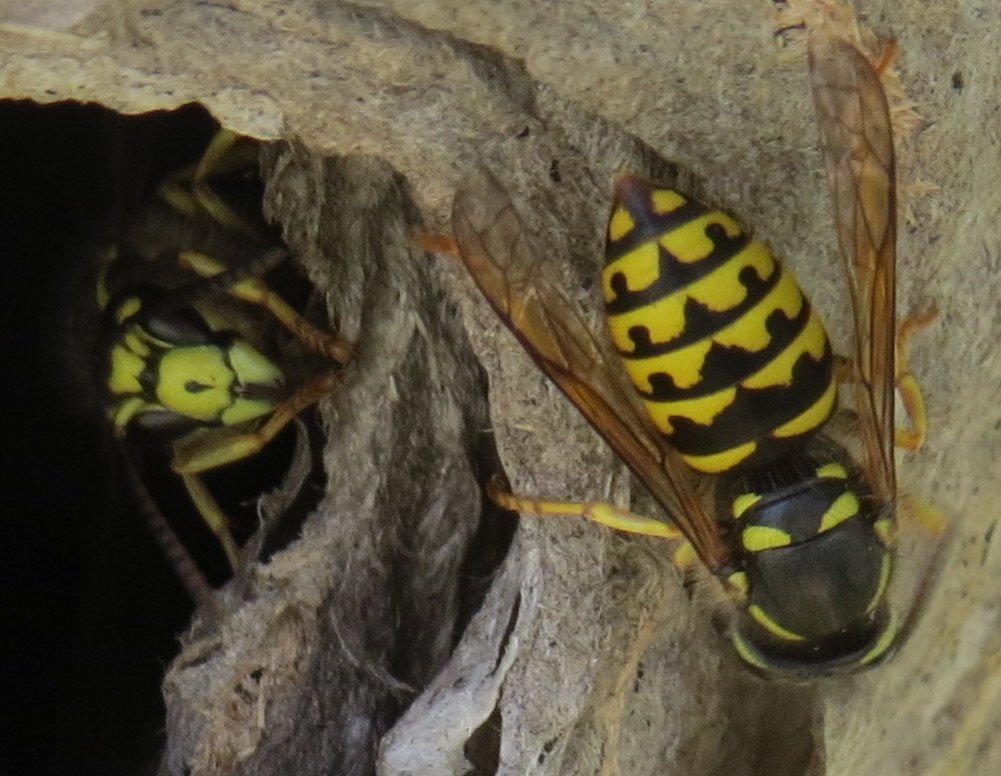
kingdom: Animalia
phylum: Arthropoda
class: Insecta
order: Hymenoptera
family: Vespidae
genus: Dolichovespula
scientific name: Dolichovespula arenaria
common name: Aerial yellowjacket
